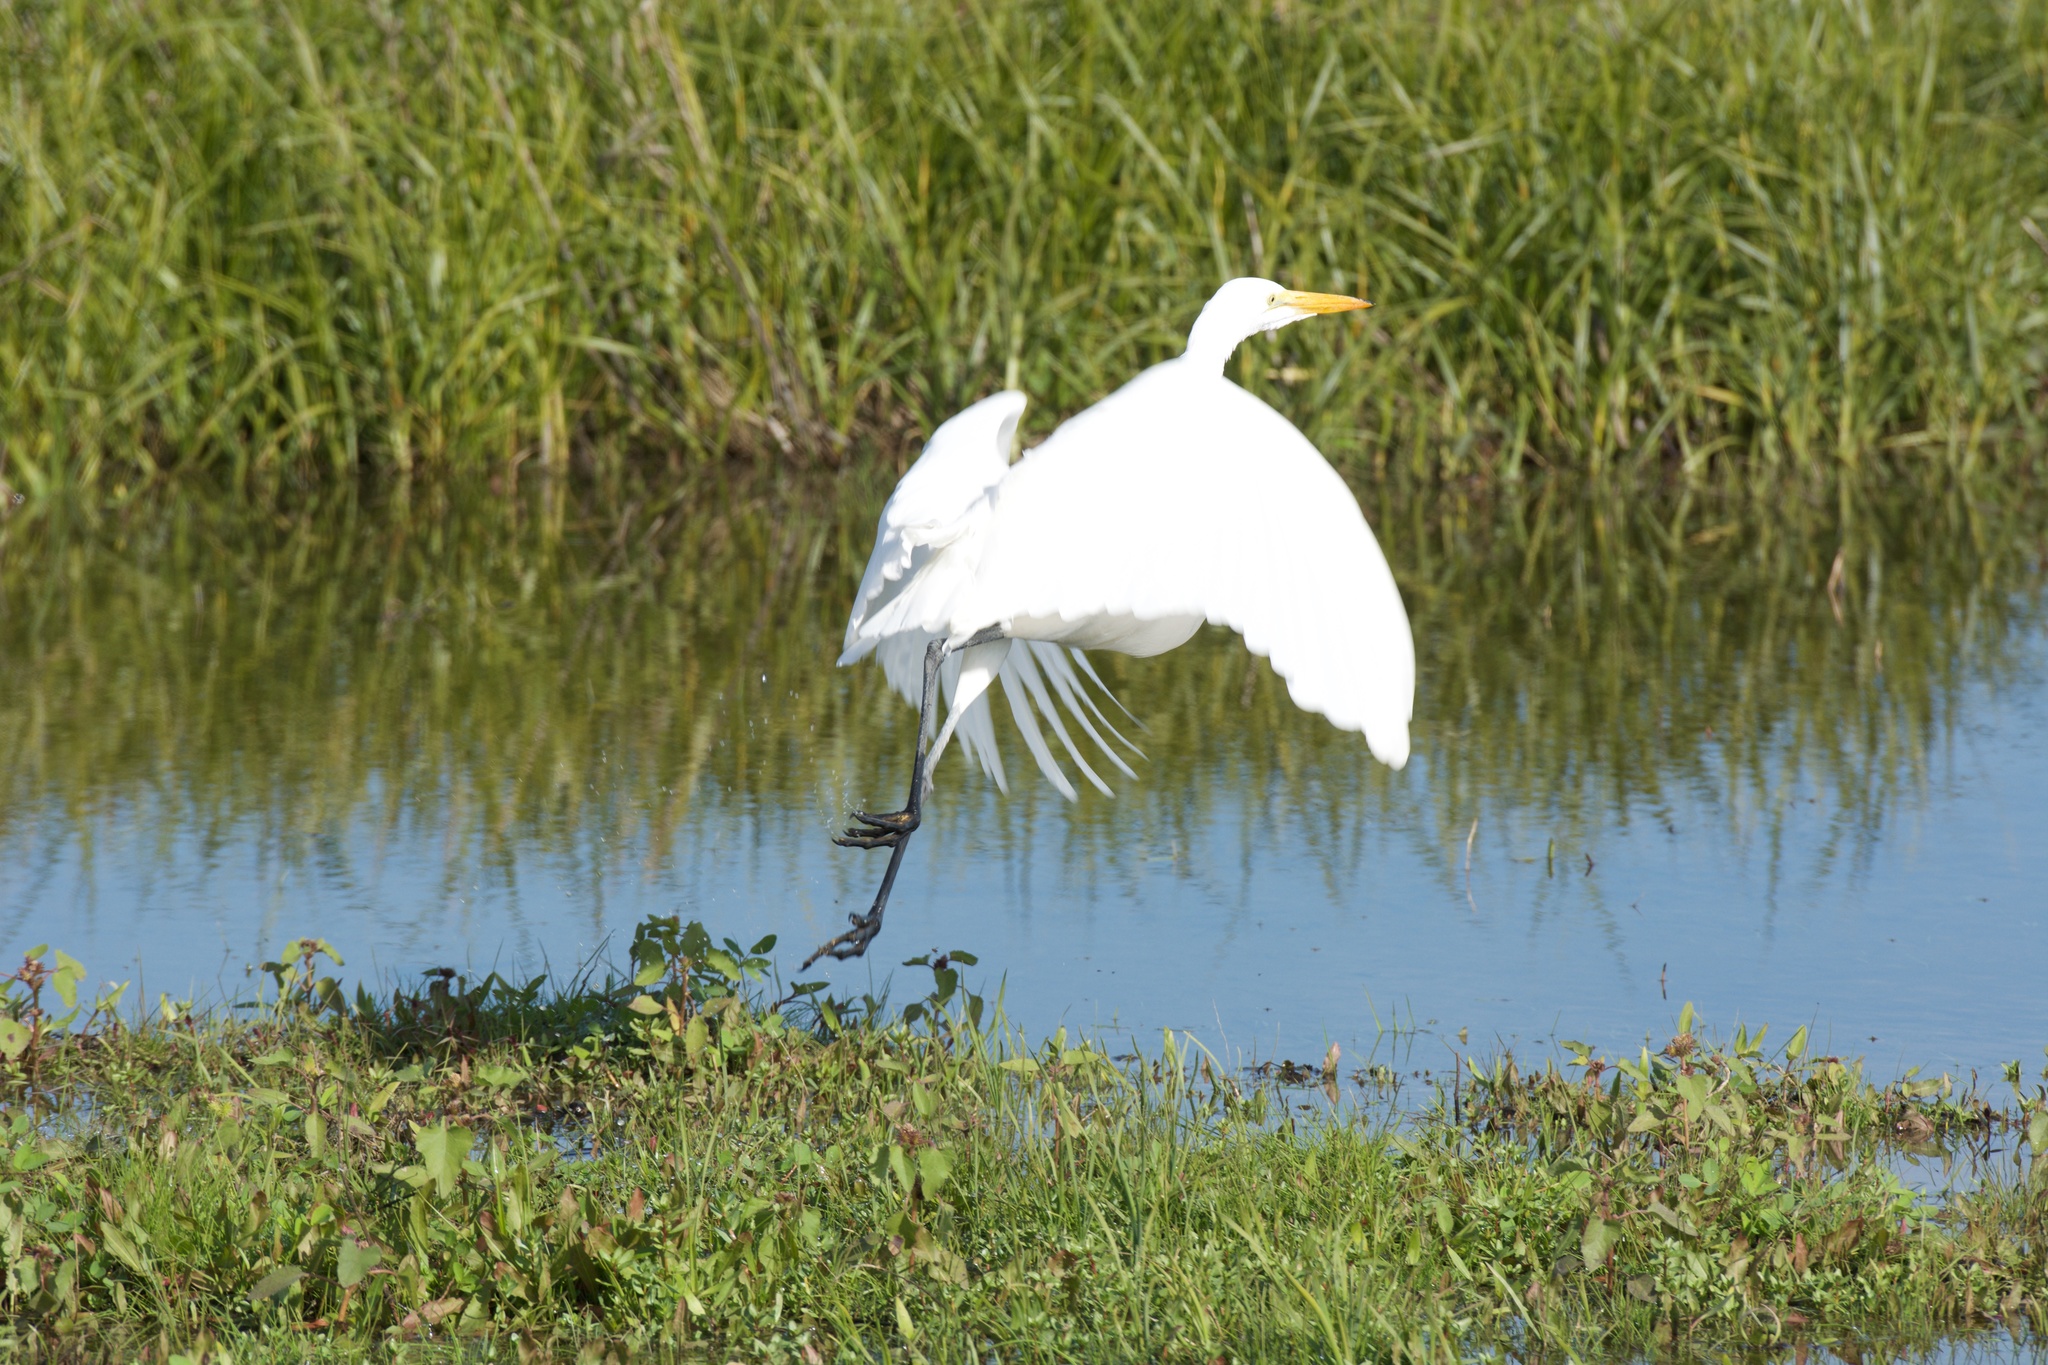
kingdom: Animalia
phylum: Chordata
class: Aves
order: Pelecaniformes
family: Ardeidae
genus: Ardea
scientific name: Ardea alba
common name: Great egret
